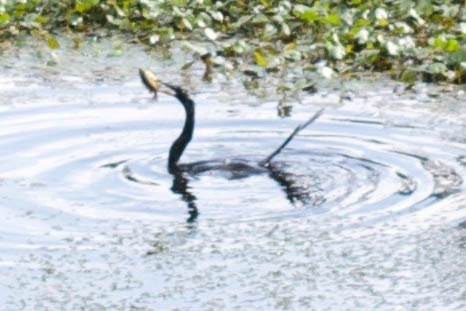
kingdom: Animalia
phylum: Chordata
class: Aves
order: Suliformes
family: Anhingidae
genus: Anhinga
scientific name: Anhinga anhinga
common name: Anhinga
